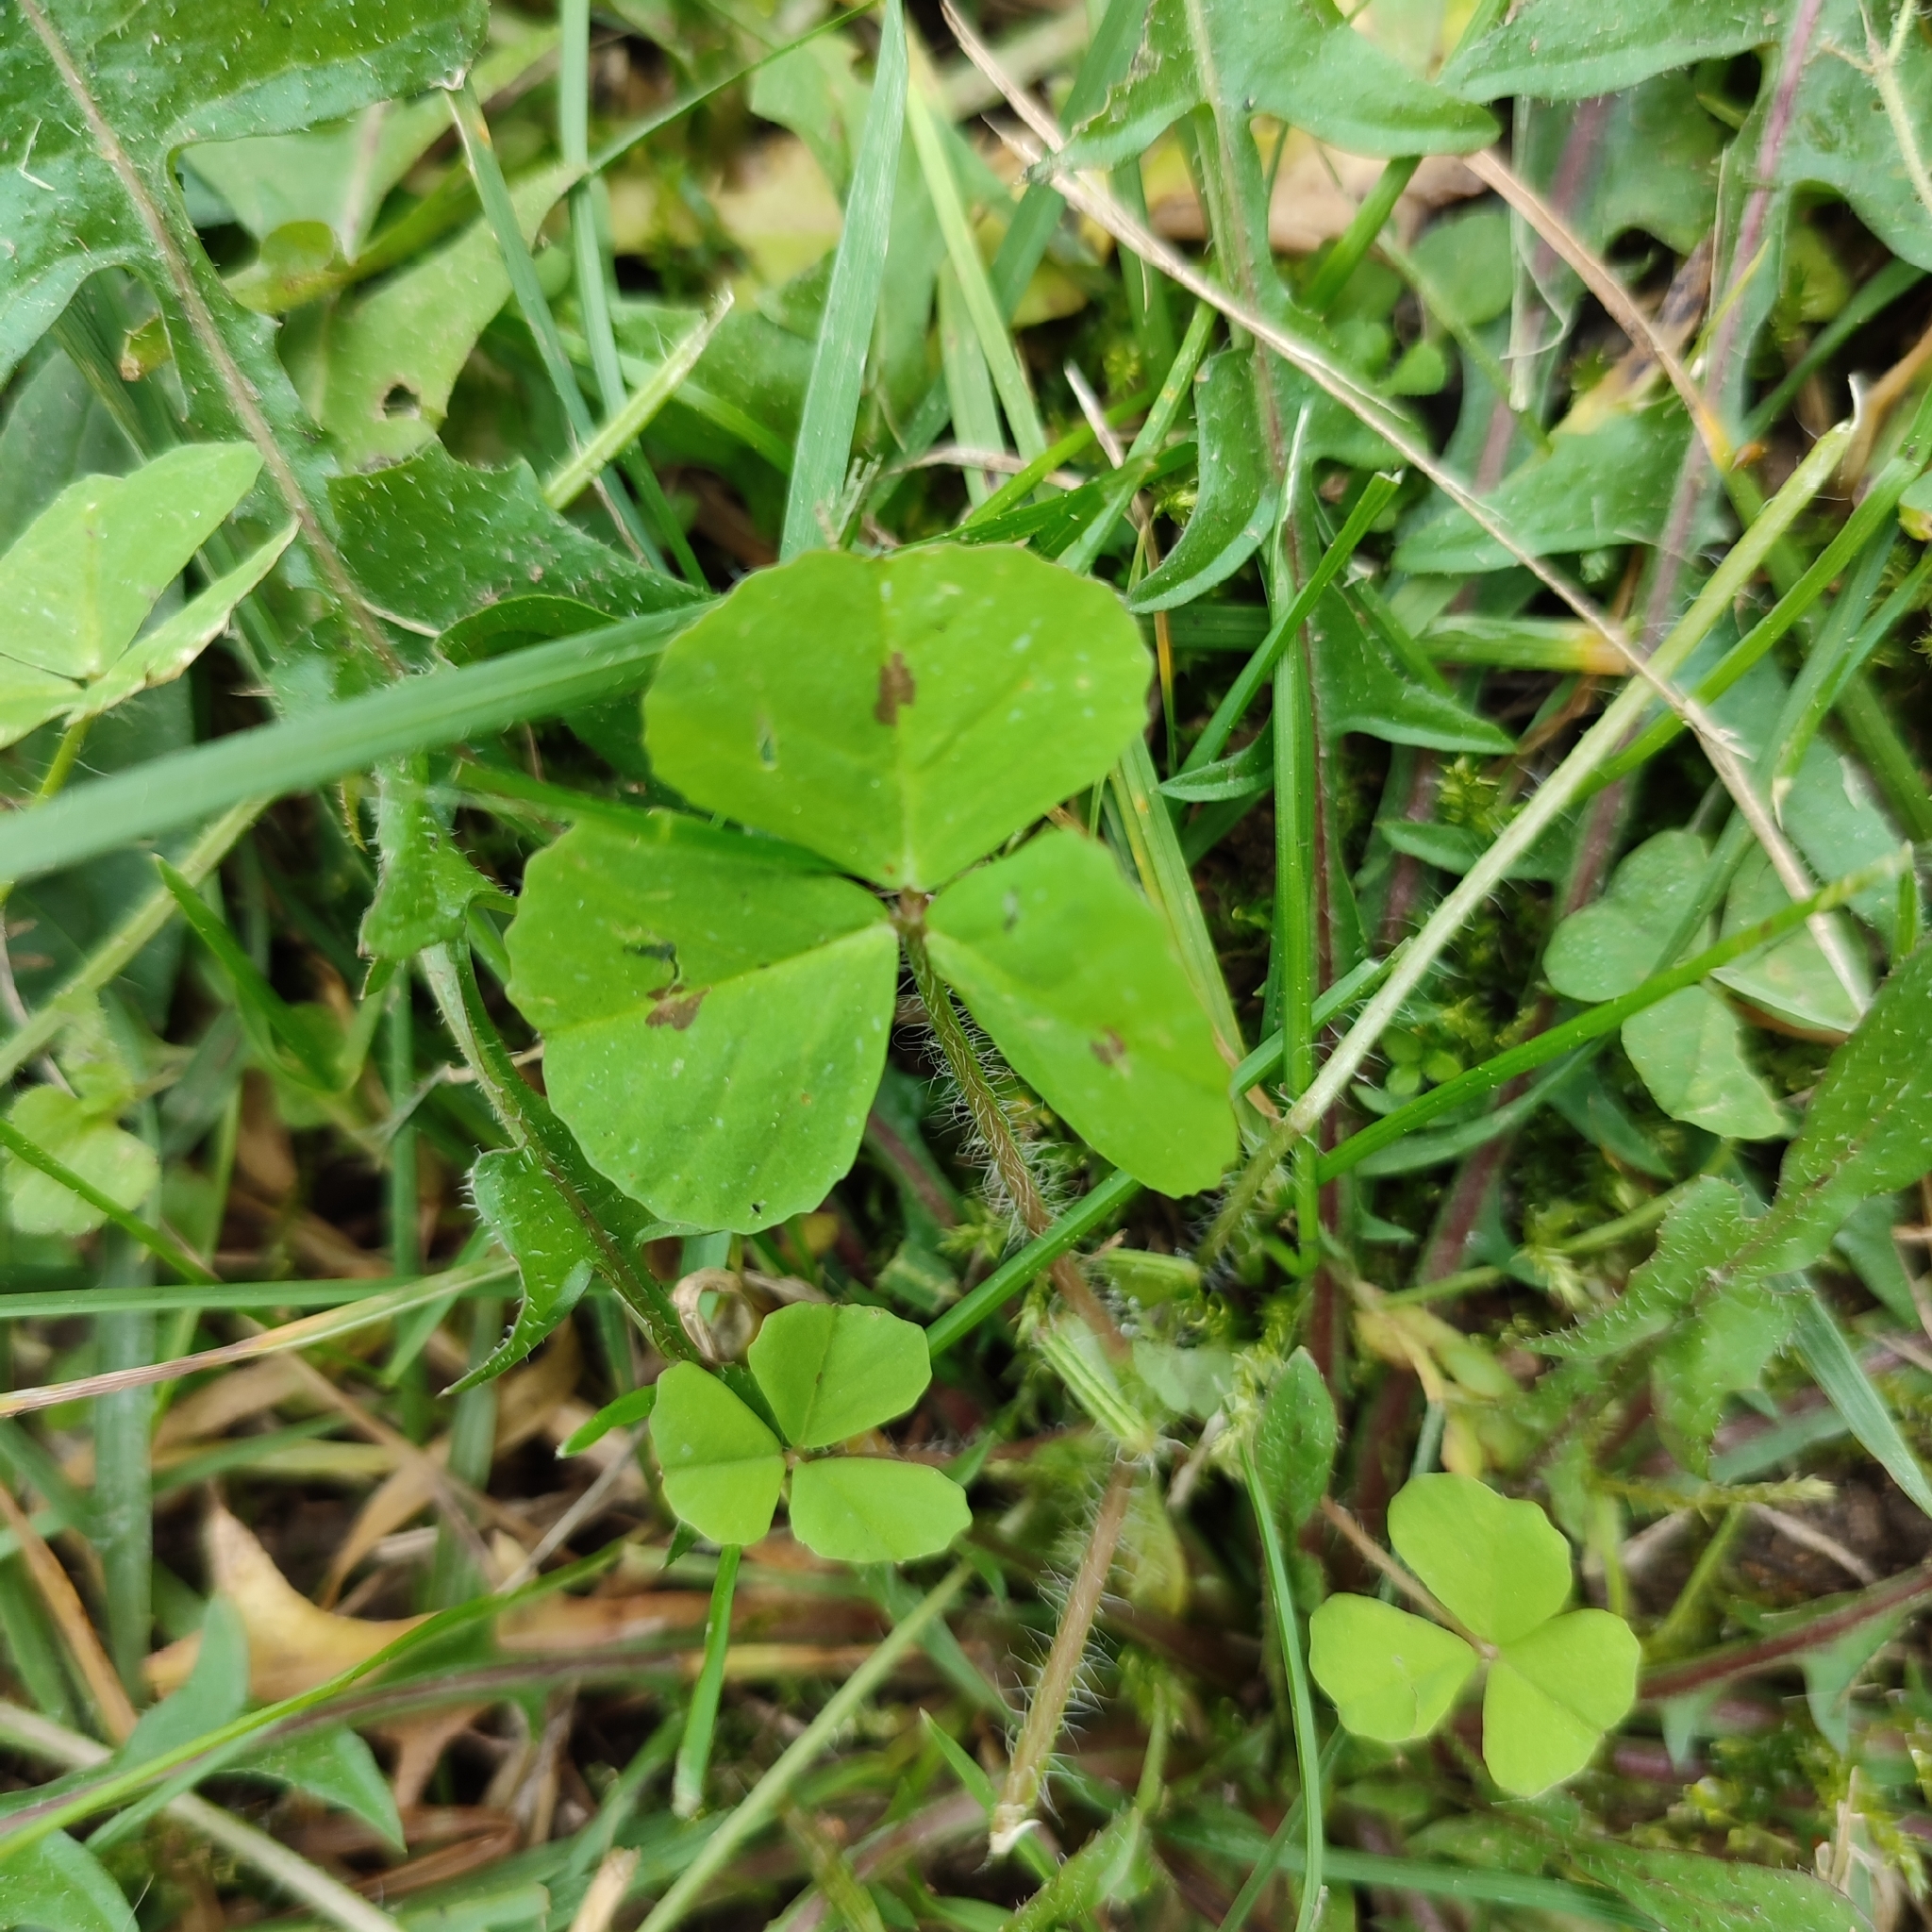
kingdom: Plantae
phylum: Tracheophyta
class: Magnoliopsida
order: Fabales
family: Fabaceae
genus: Medicago
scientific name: Medicago arabica
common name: Spotted medick
